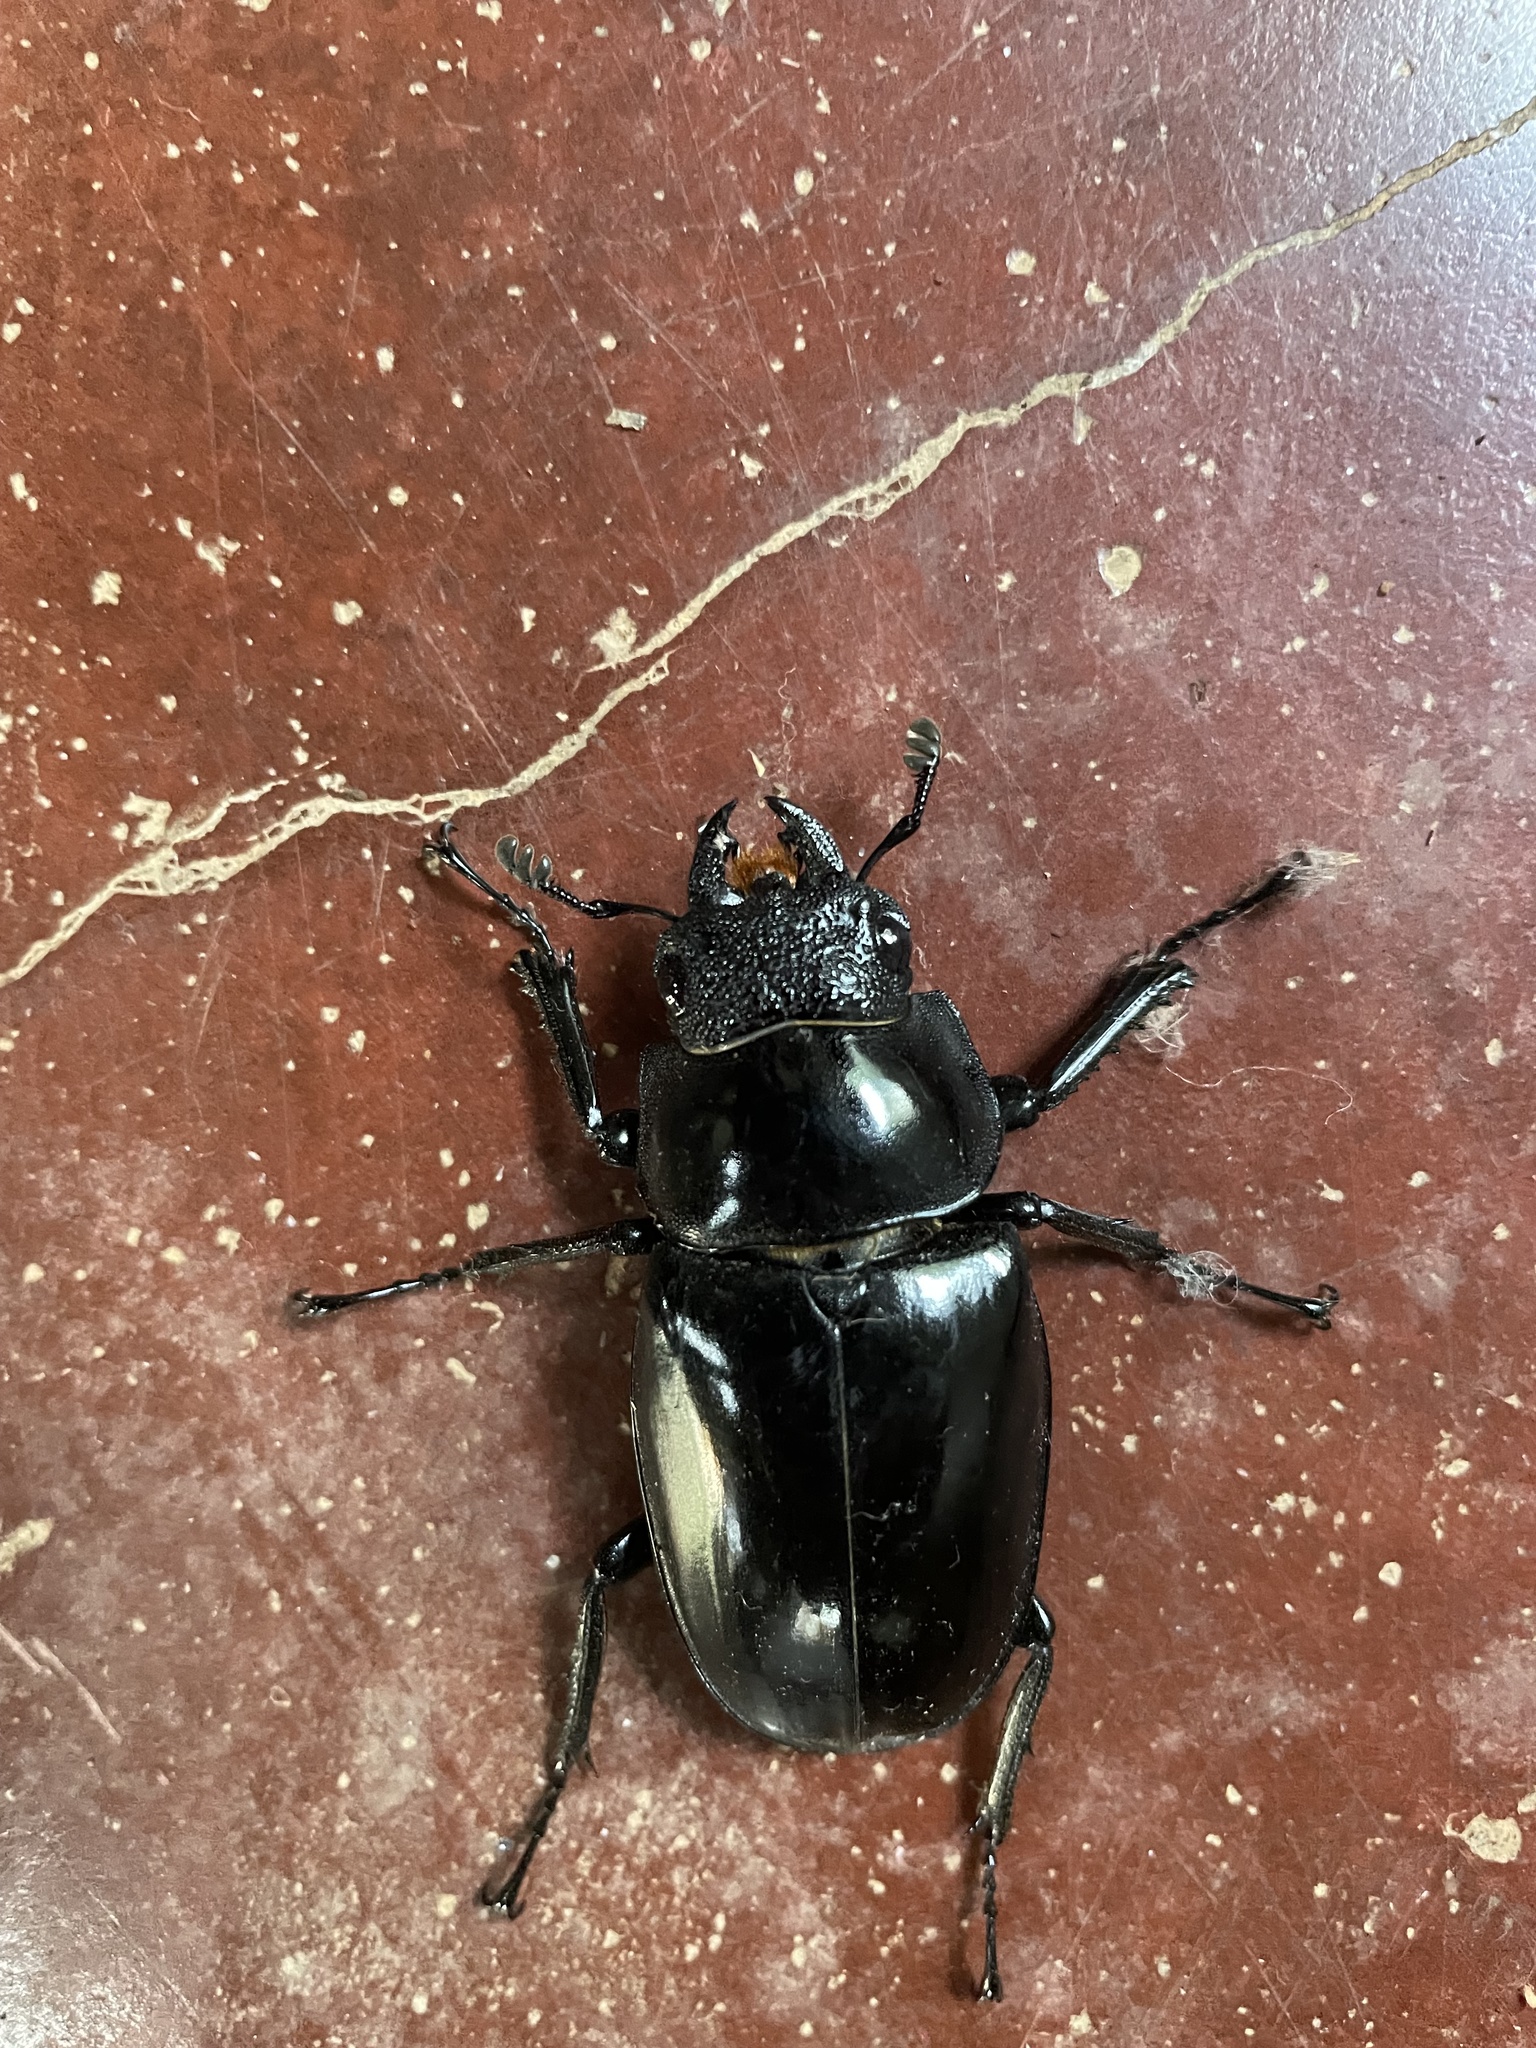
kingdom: Animalia
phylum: Arthropoda
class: Insecta
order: Coleoptera
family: Lucanidae
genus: Prosopocoilus
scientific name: Prosopocoilus girafa
